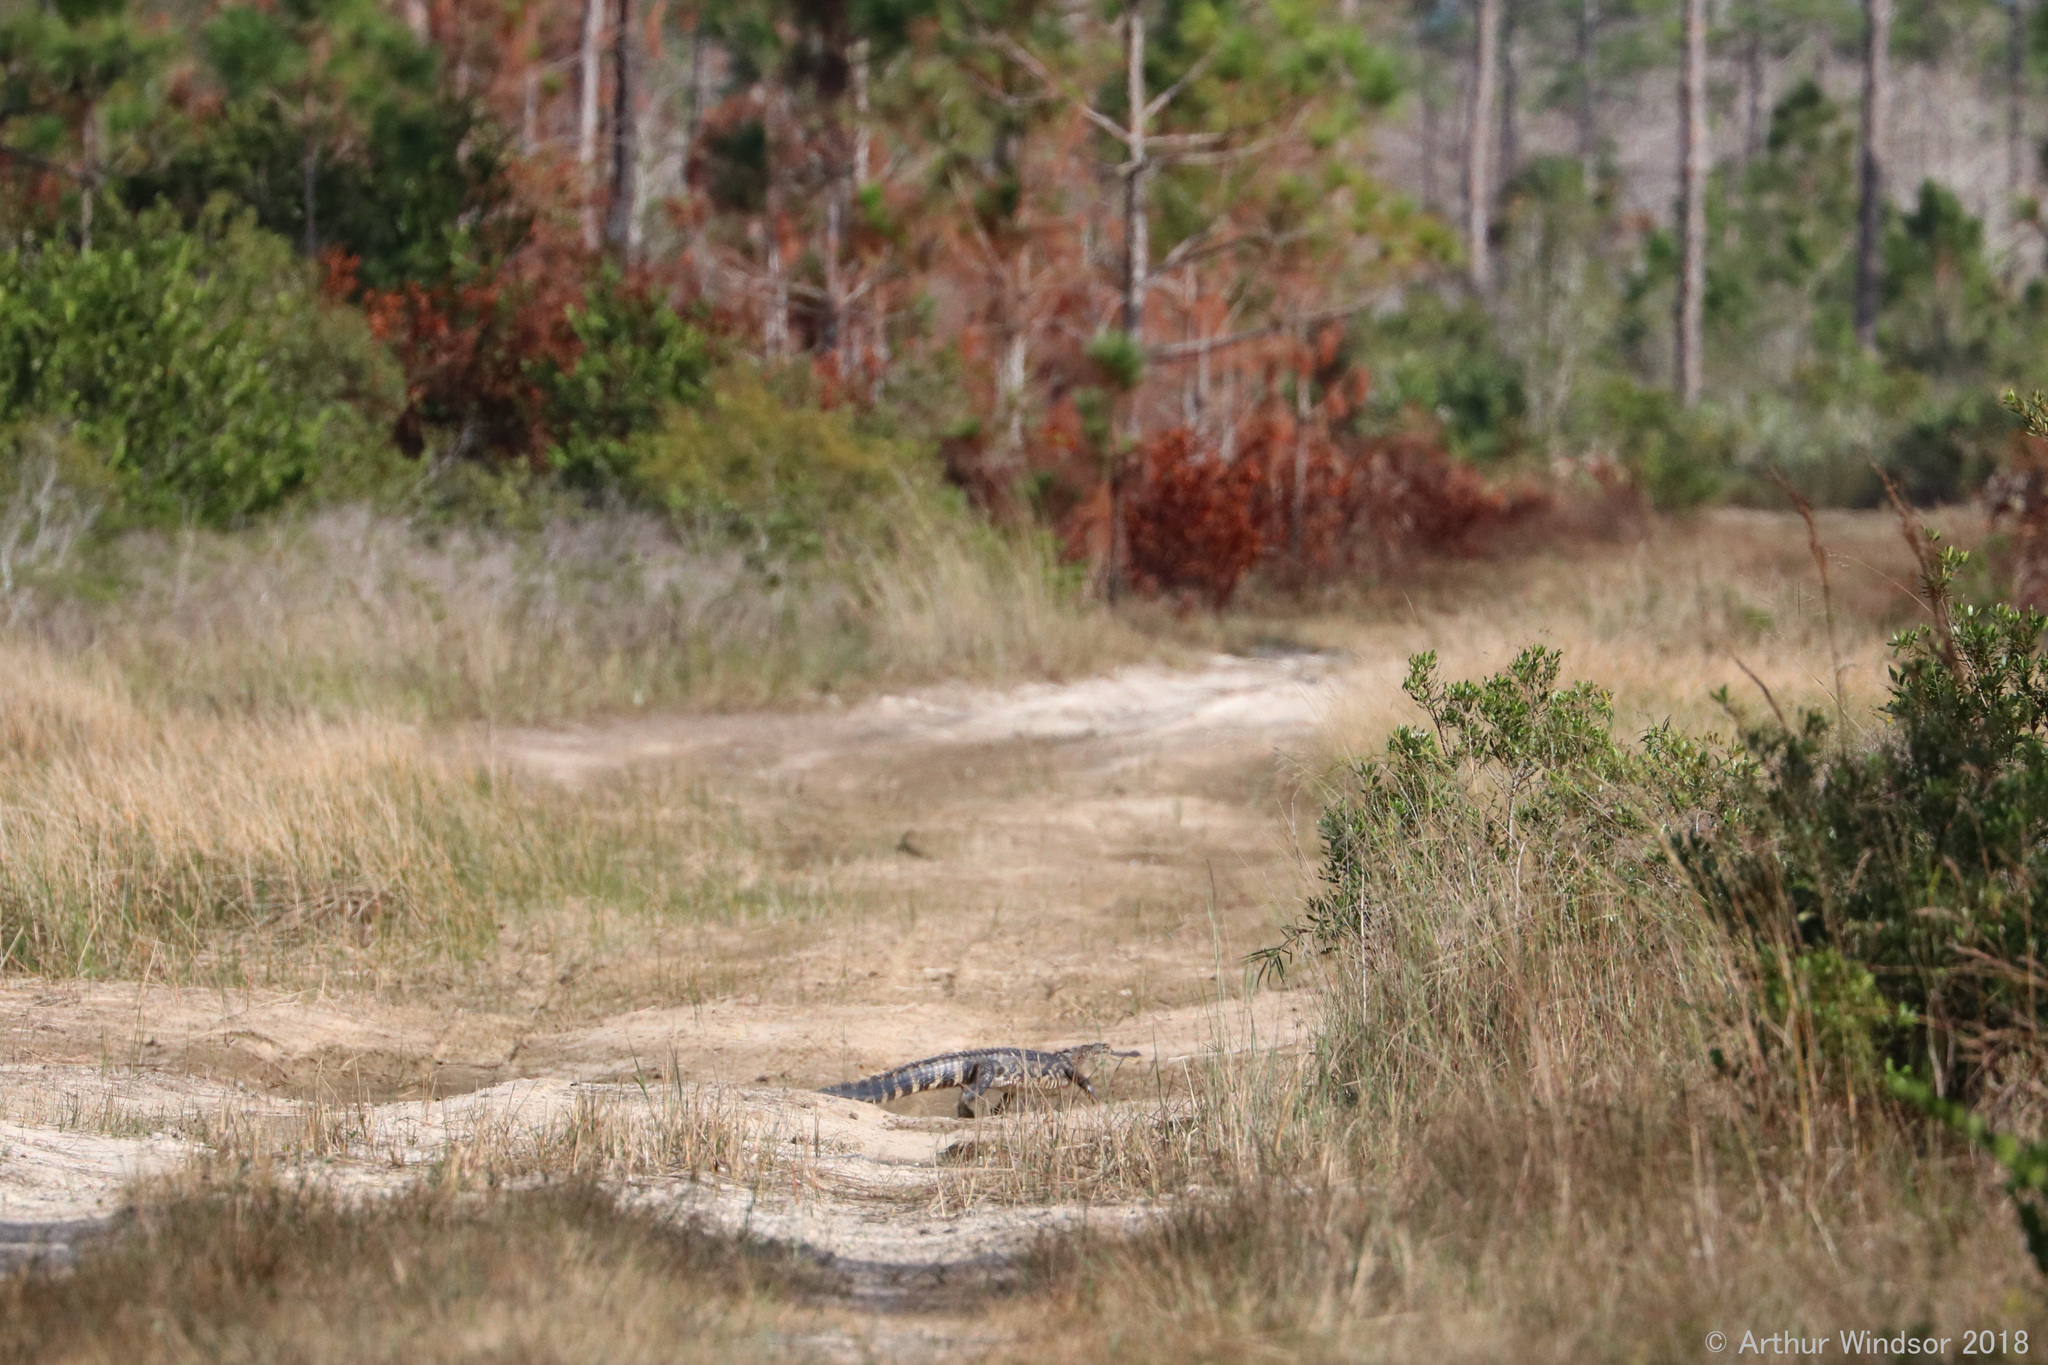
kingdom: Animalia
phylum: Chordata
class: Crocodylia
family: Alligatoridae
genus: Alligator
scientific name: Alligator mississippiensis
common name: American alligator
